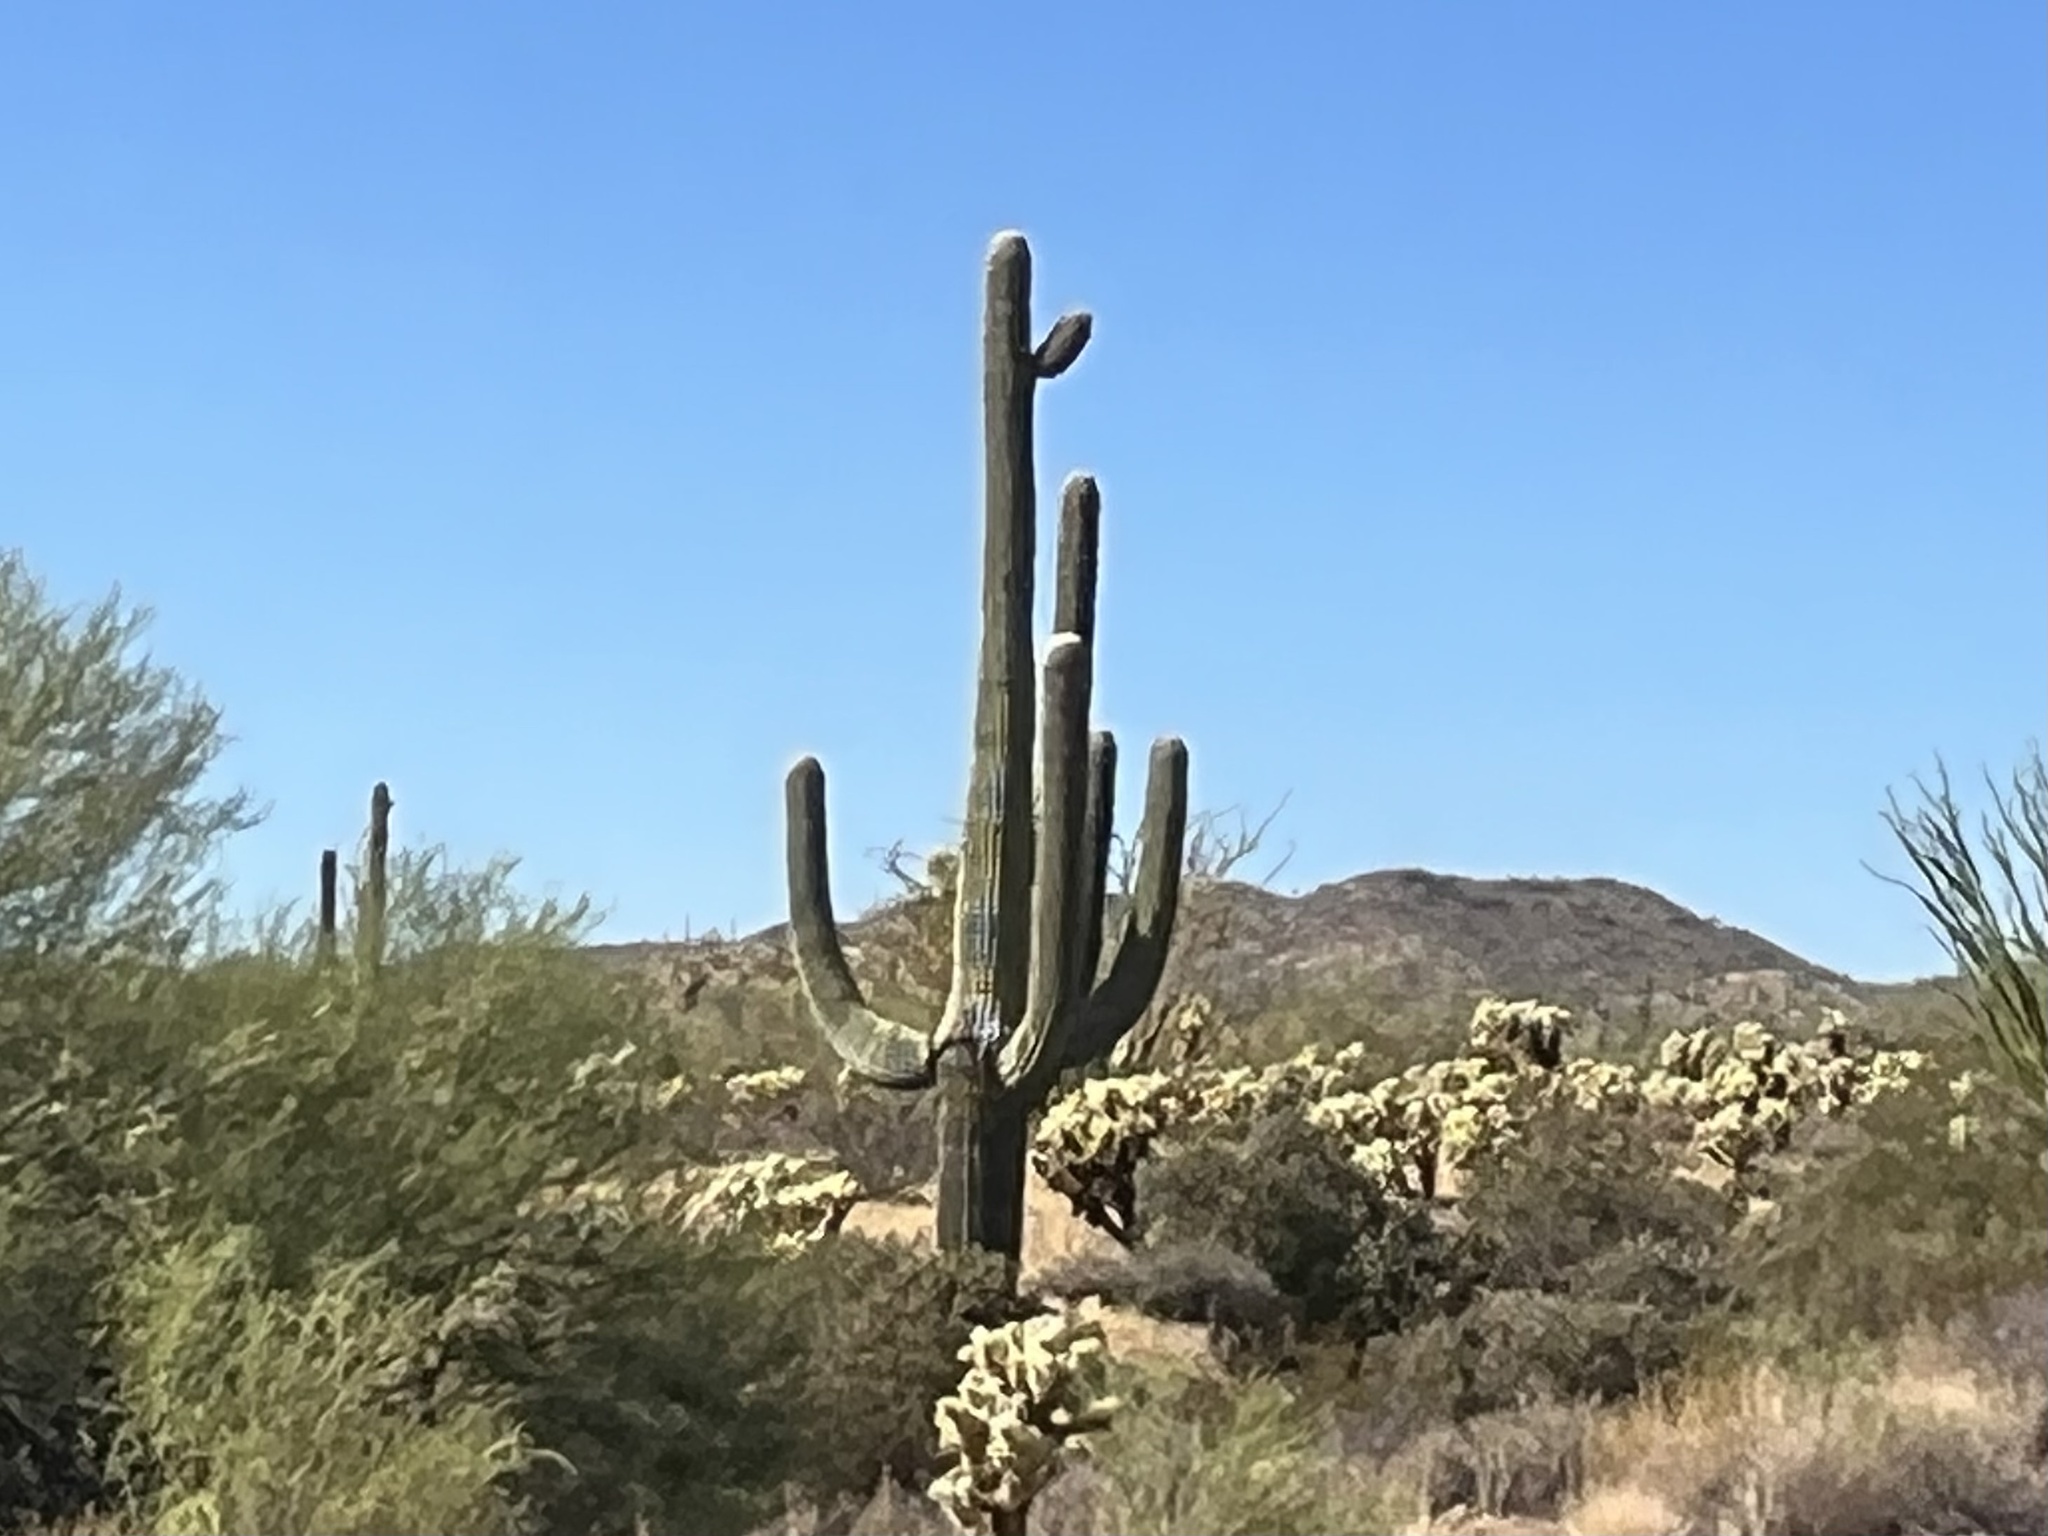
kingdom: Plantae
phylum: Tracheophyta
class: Magnoliopsida
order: Caryophyllales
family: Cactaceae
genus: Carnegiea
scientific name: Carnegiea gigantea
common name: Saguaro
